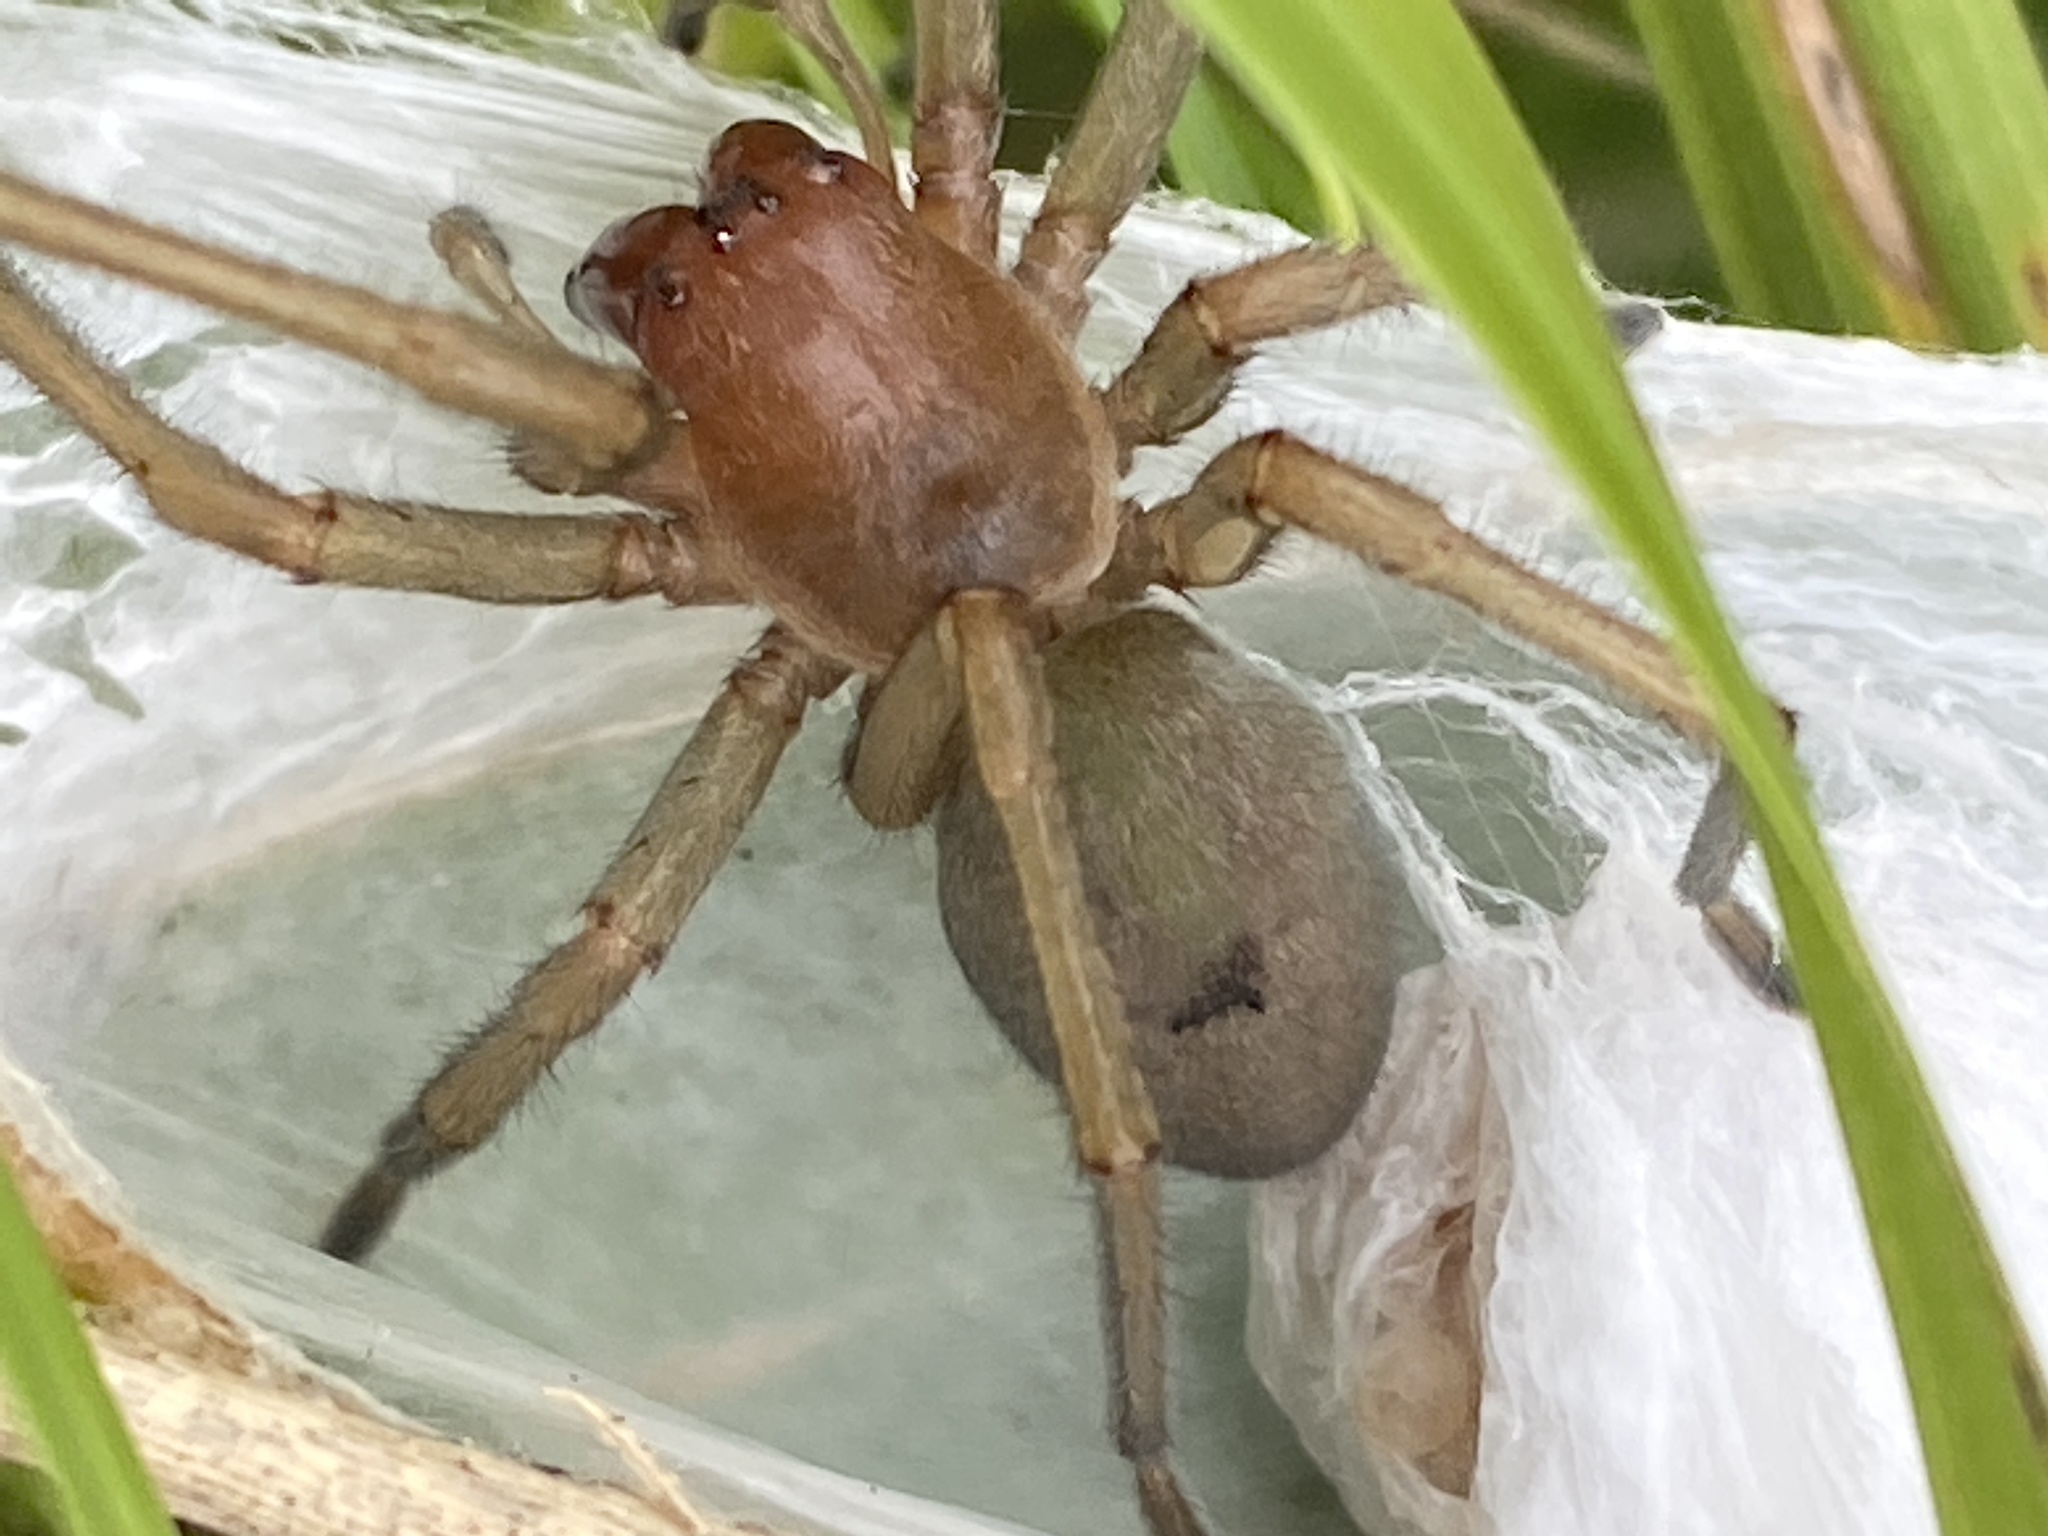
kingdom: Animalia
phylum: Arthropoda
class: Arachnida
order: Araneae
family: Cheiracanthiidae
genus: Cheiracanthium
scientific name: Cheiracanthium punctorium
